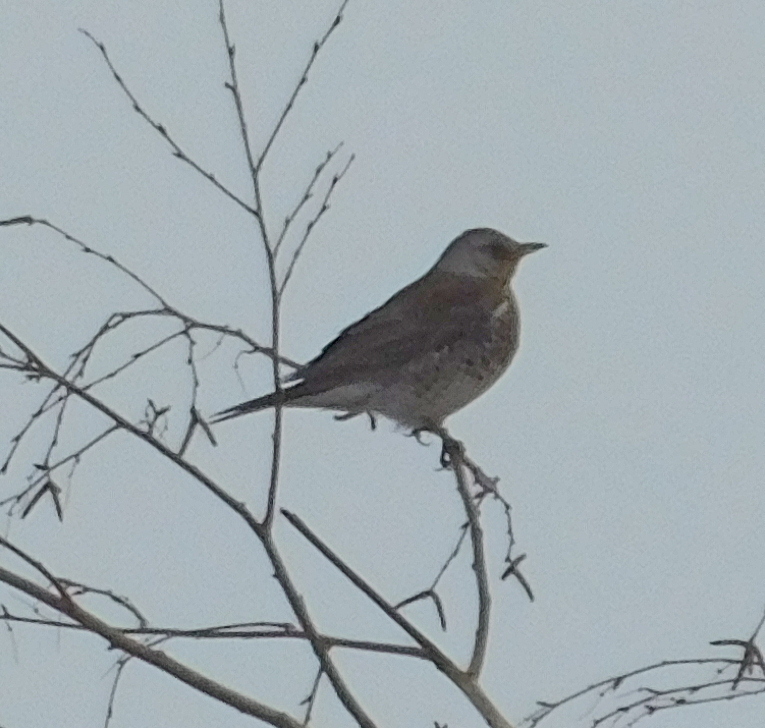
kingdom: Animalia
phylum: Chordata
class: Aves
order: Passeriformes
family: Turdidae
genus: Turdus
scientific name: Turdus pilaris
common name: Fieldfare
